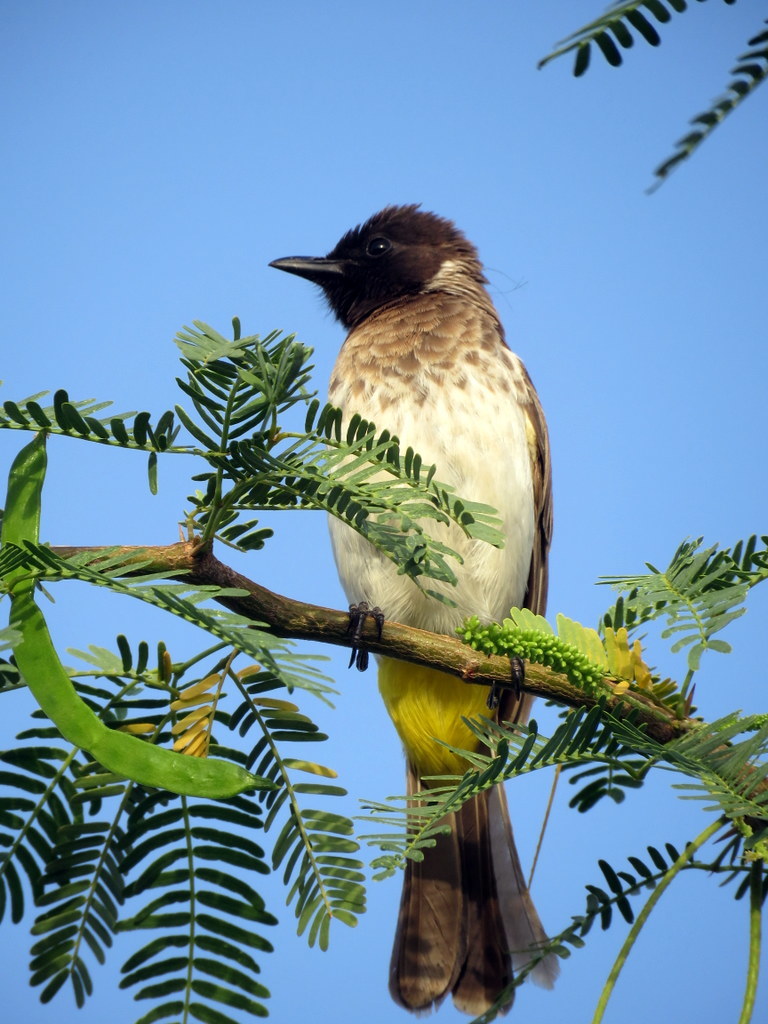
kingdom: Animalia
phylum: Chordata
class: Aves
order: Passeriformes
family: Pycnonotidae
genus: Pycnonotus
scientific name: Pycnonotus barbatus
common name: Common bulbul
